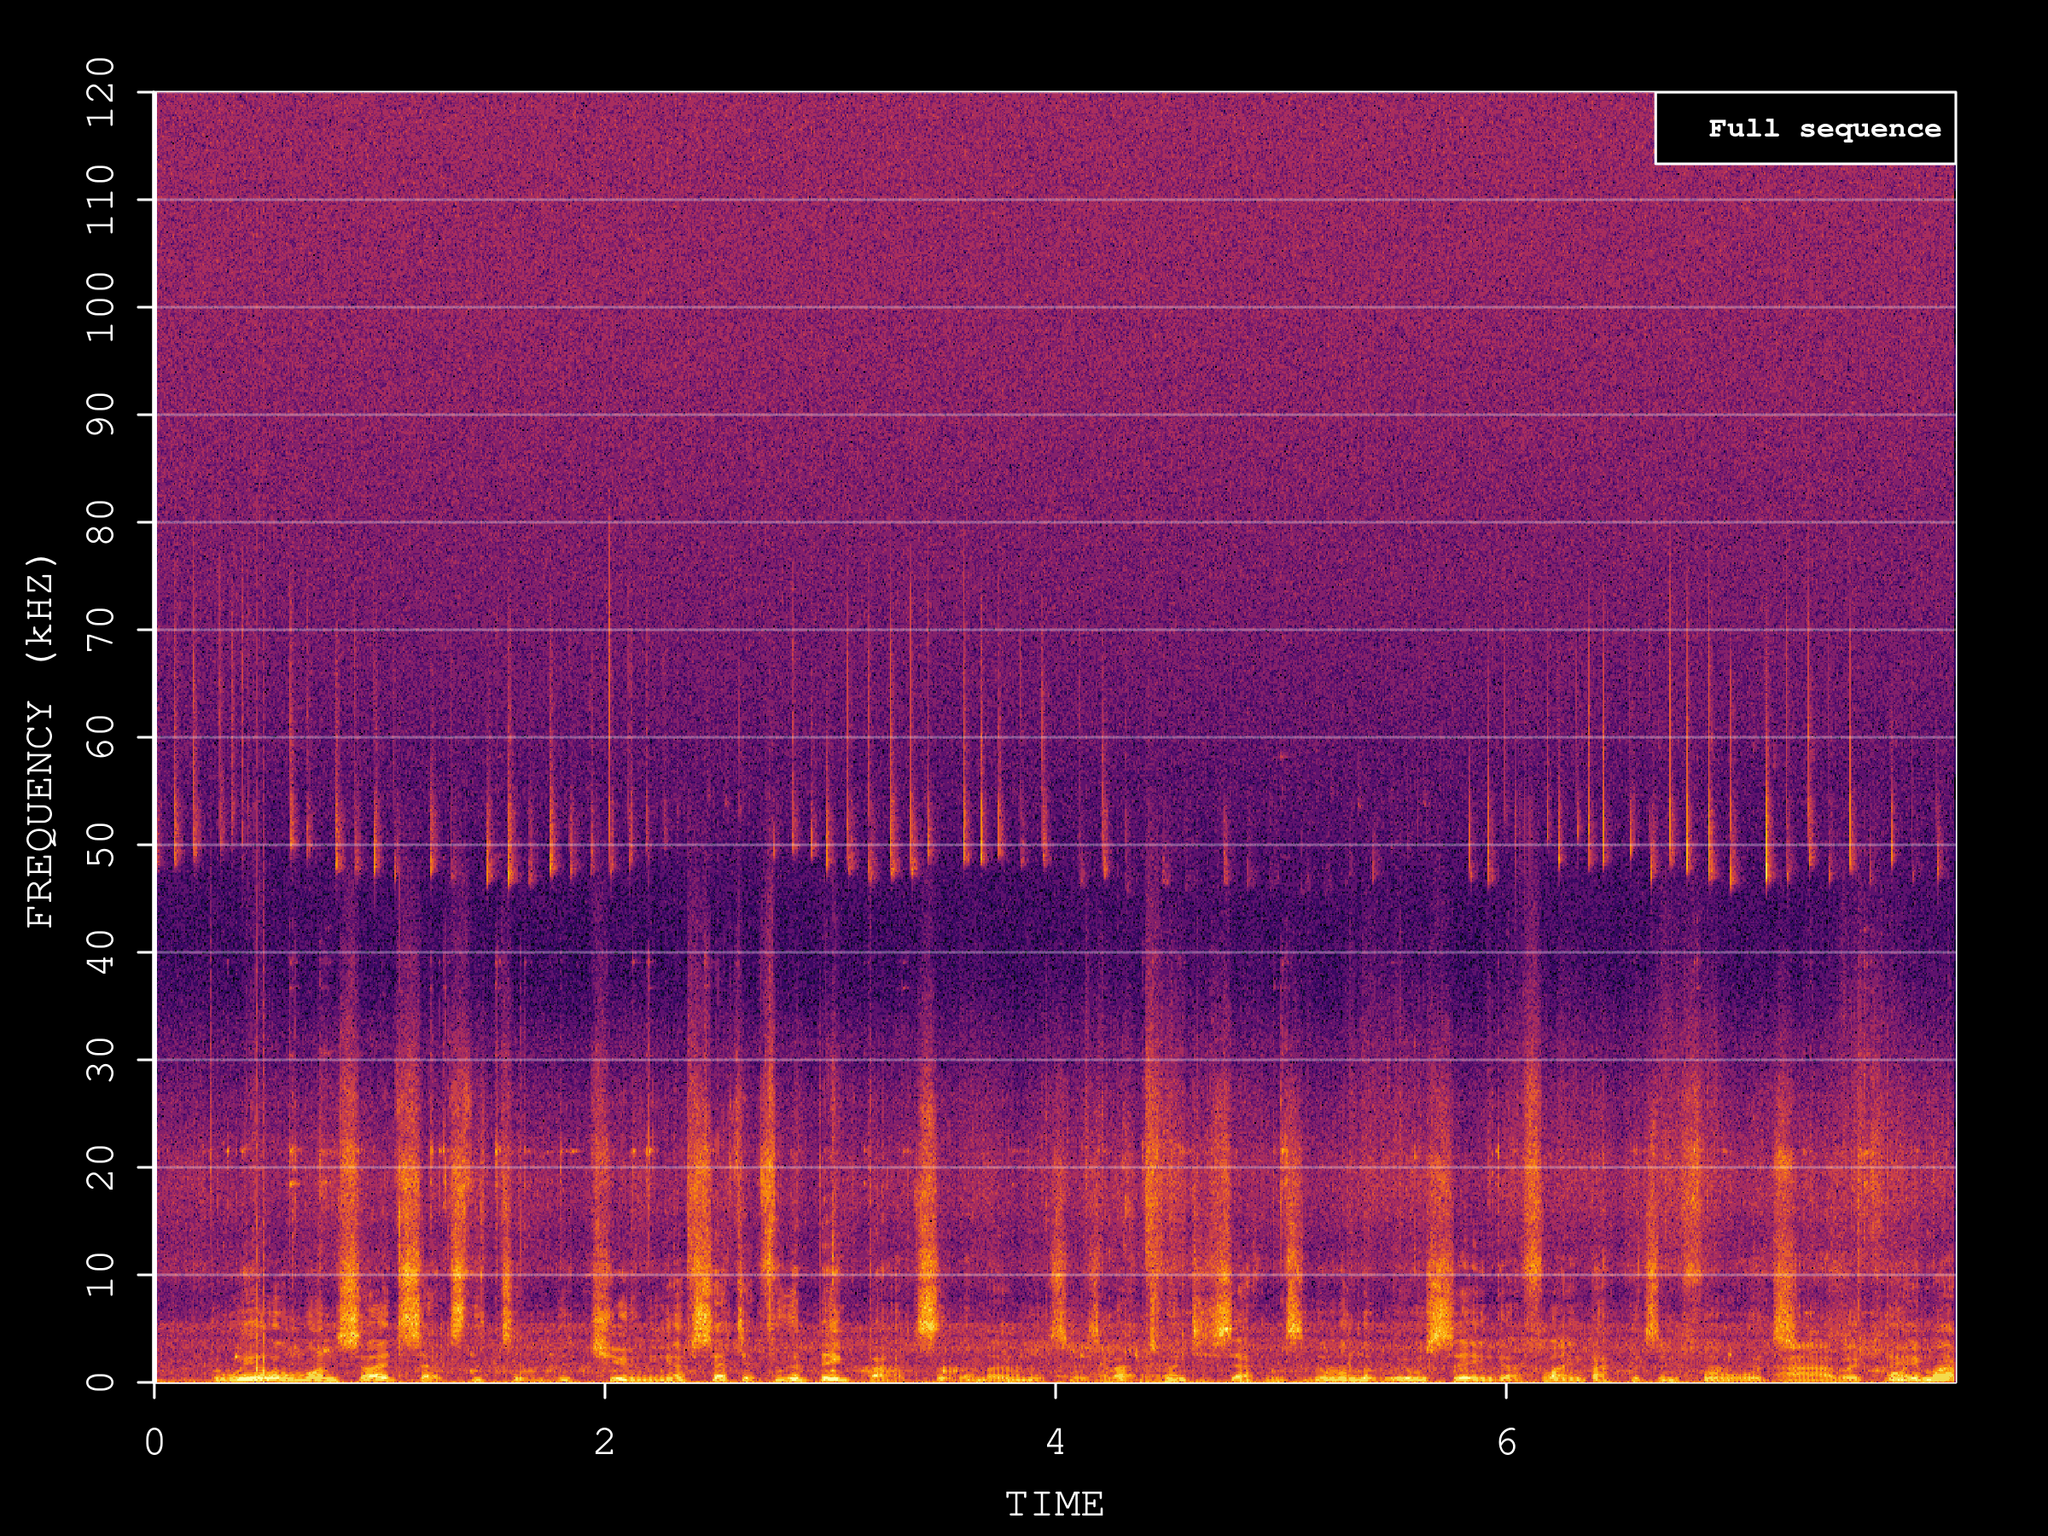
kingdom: Animalia
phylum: Chordata
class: Mammalia
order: Chiroptera
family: Vespertilionidae
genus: Pipistrellus
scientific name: Pipistrellus pipistrellus
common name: Common pipistrelle
